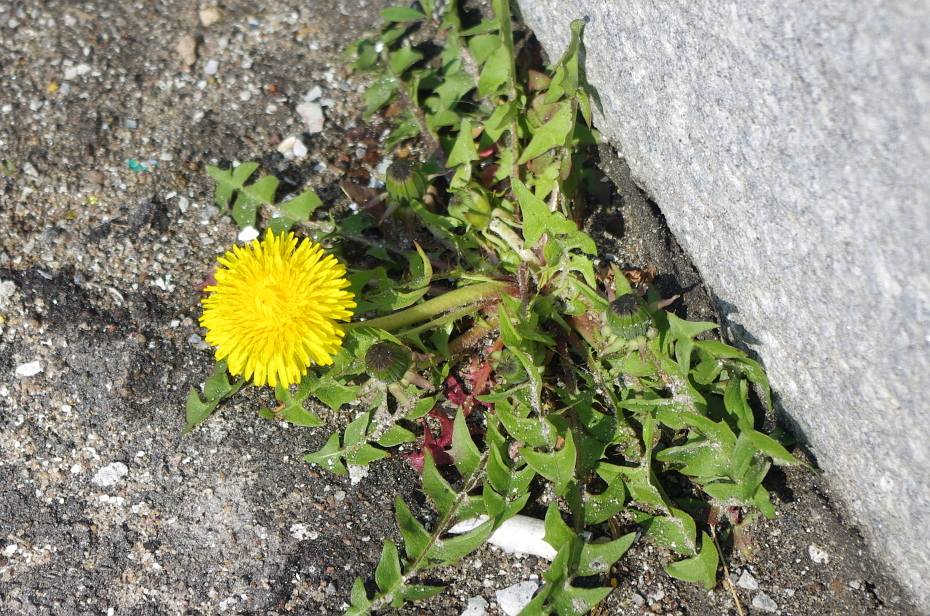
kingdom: Plantae
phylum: Tracheophyta
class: Magnoliopsida
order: Asterales
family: Asteraceae
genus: Taraxacum
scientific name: Taraxacum officinale
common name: Common dandelion
